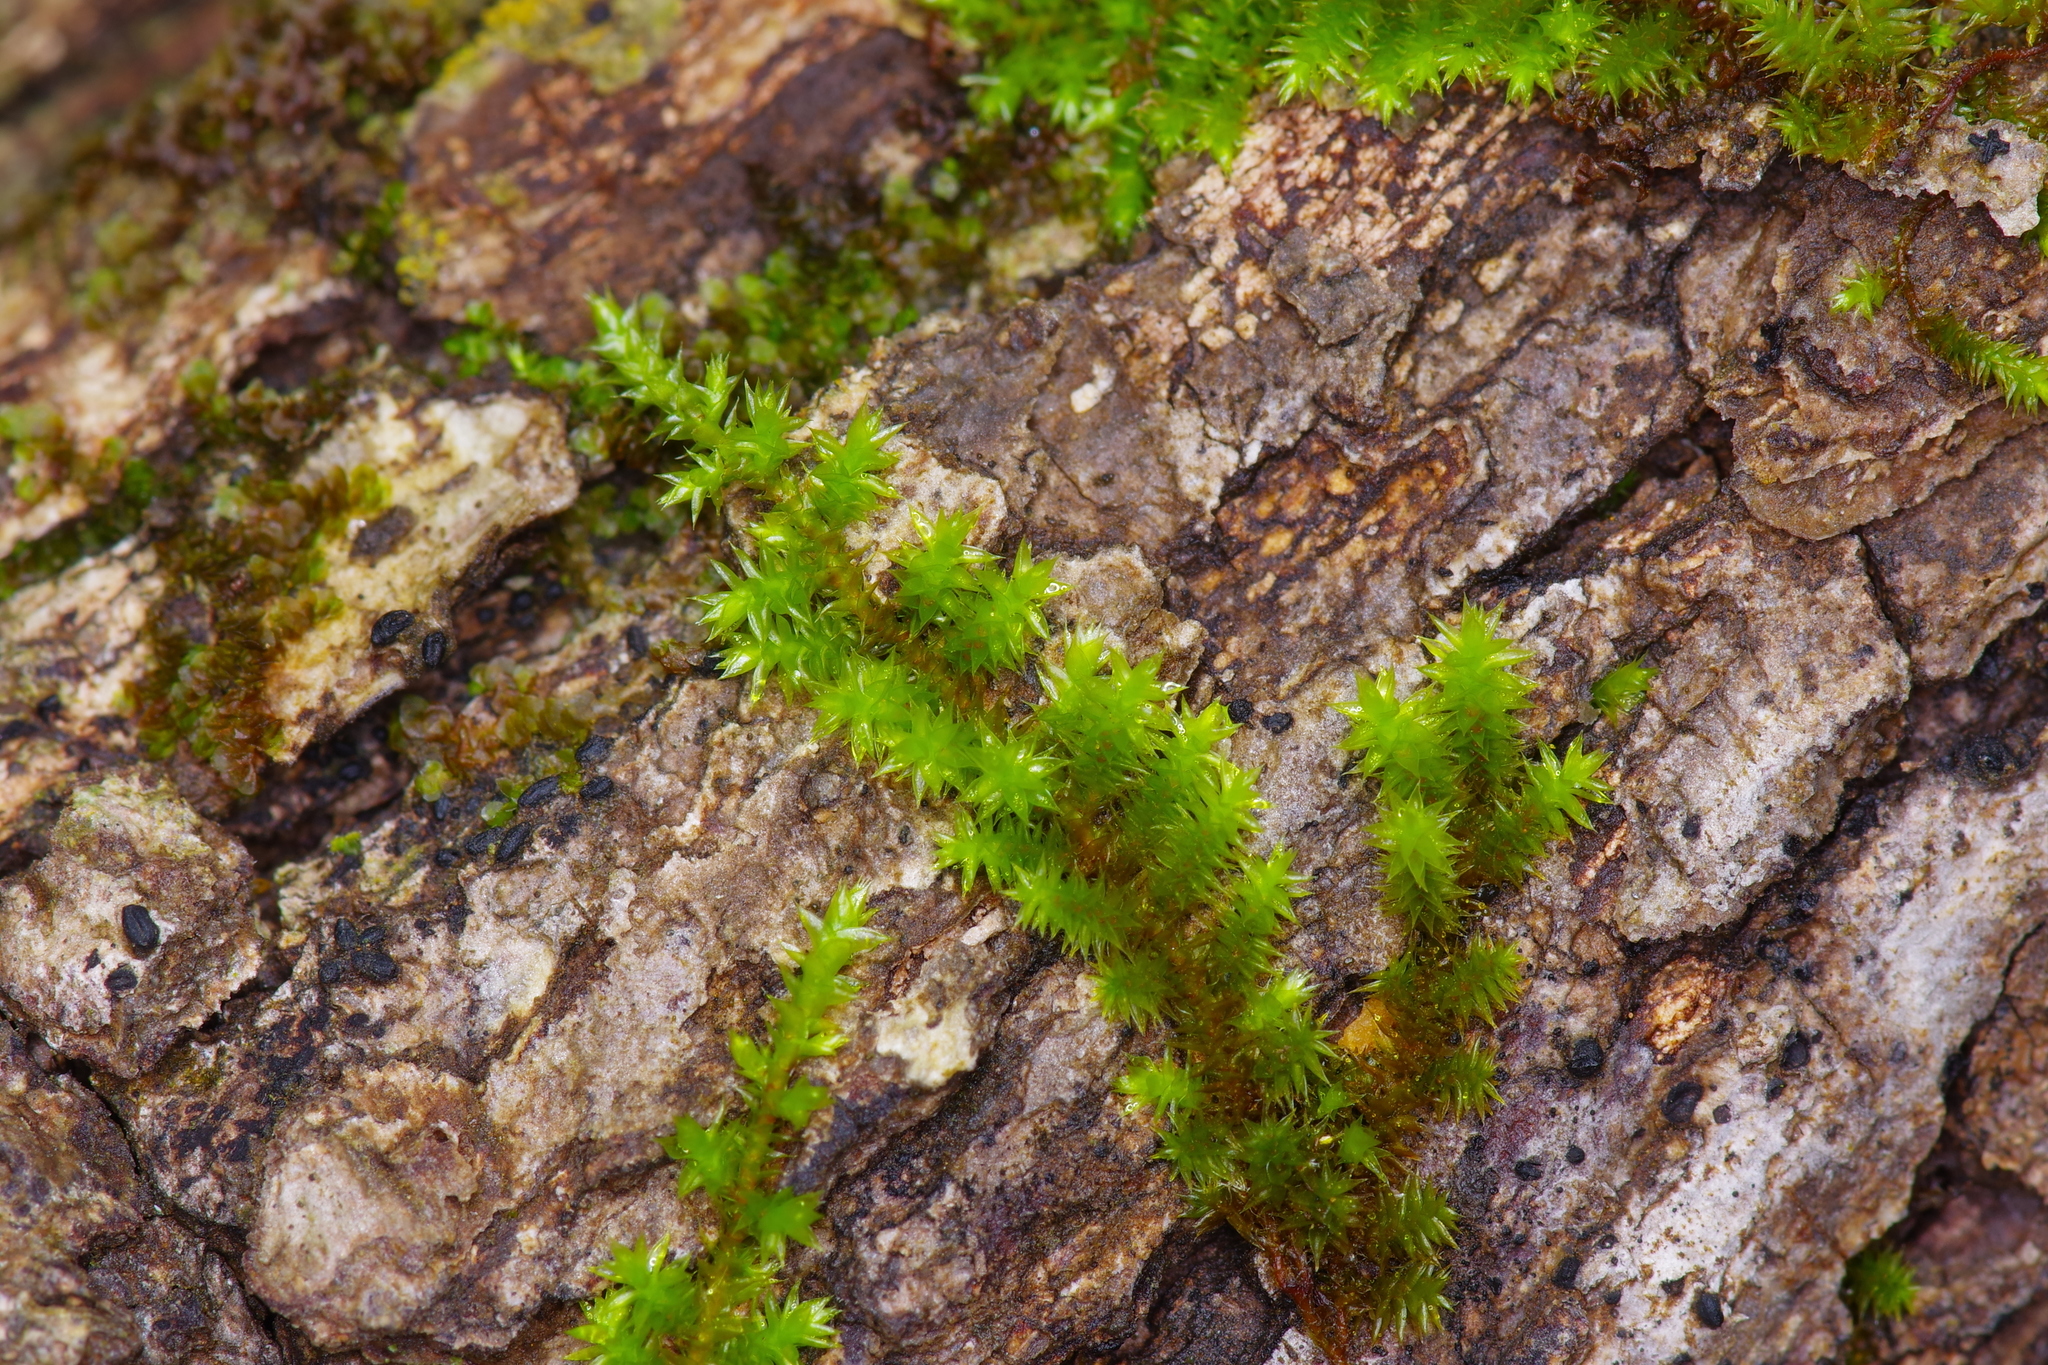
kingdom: Plantae
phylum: Bryophyta
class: Bryopsida
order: Hypnales
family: Leucodontaceae
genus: Leucodon
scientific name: Leucodon julaceus
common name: Smooth hook moss
